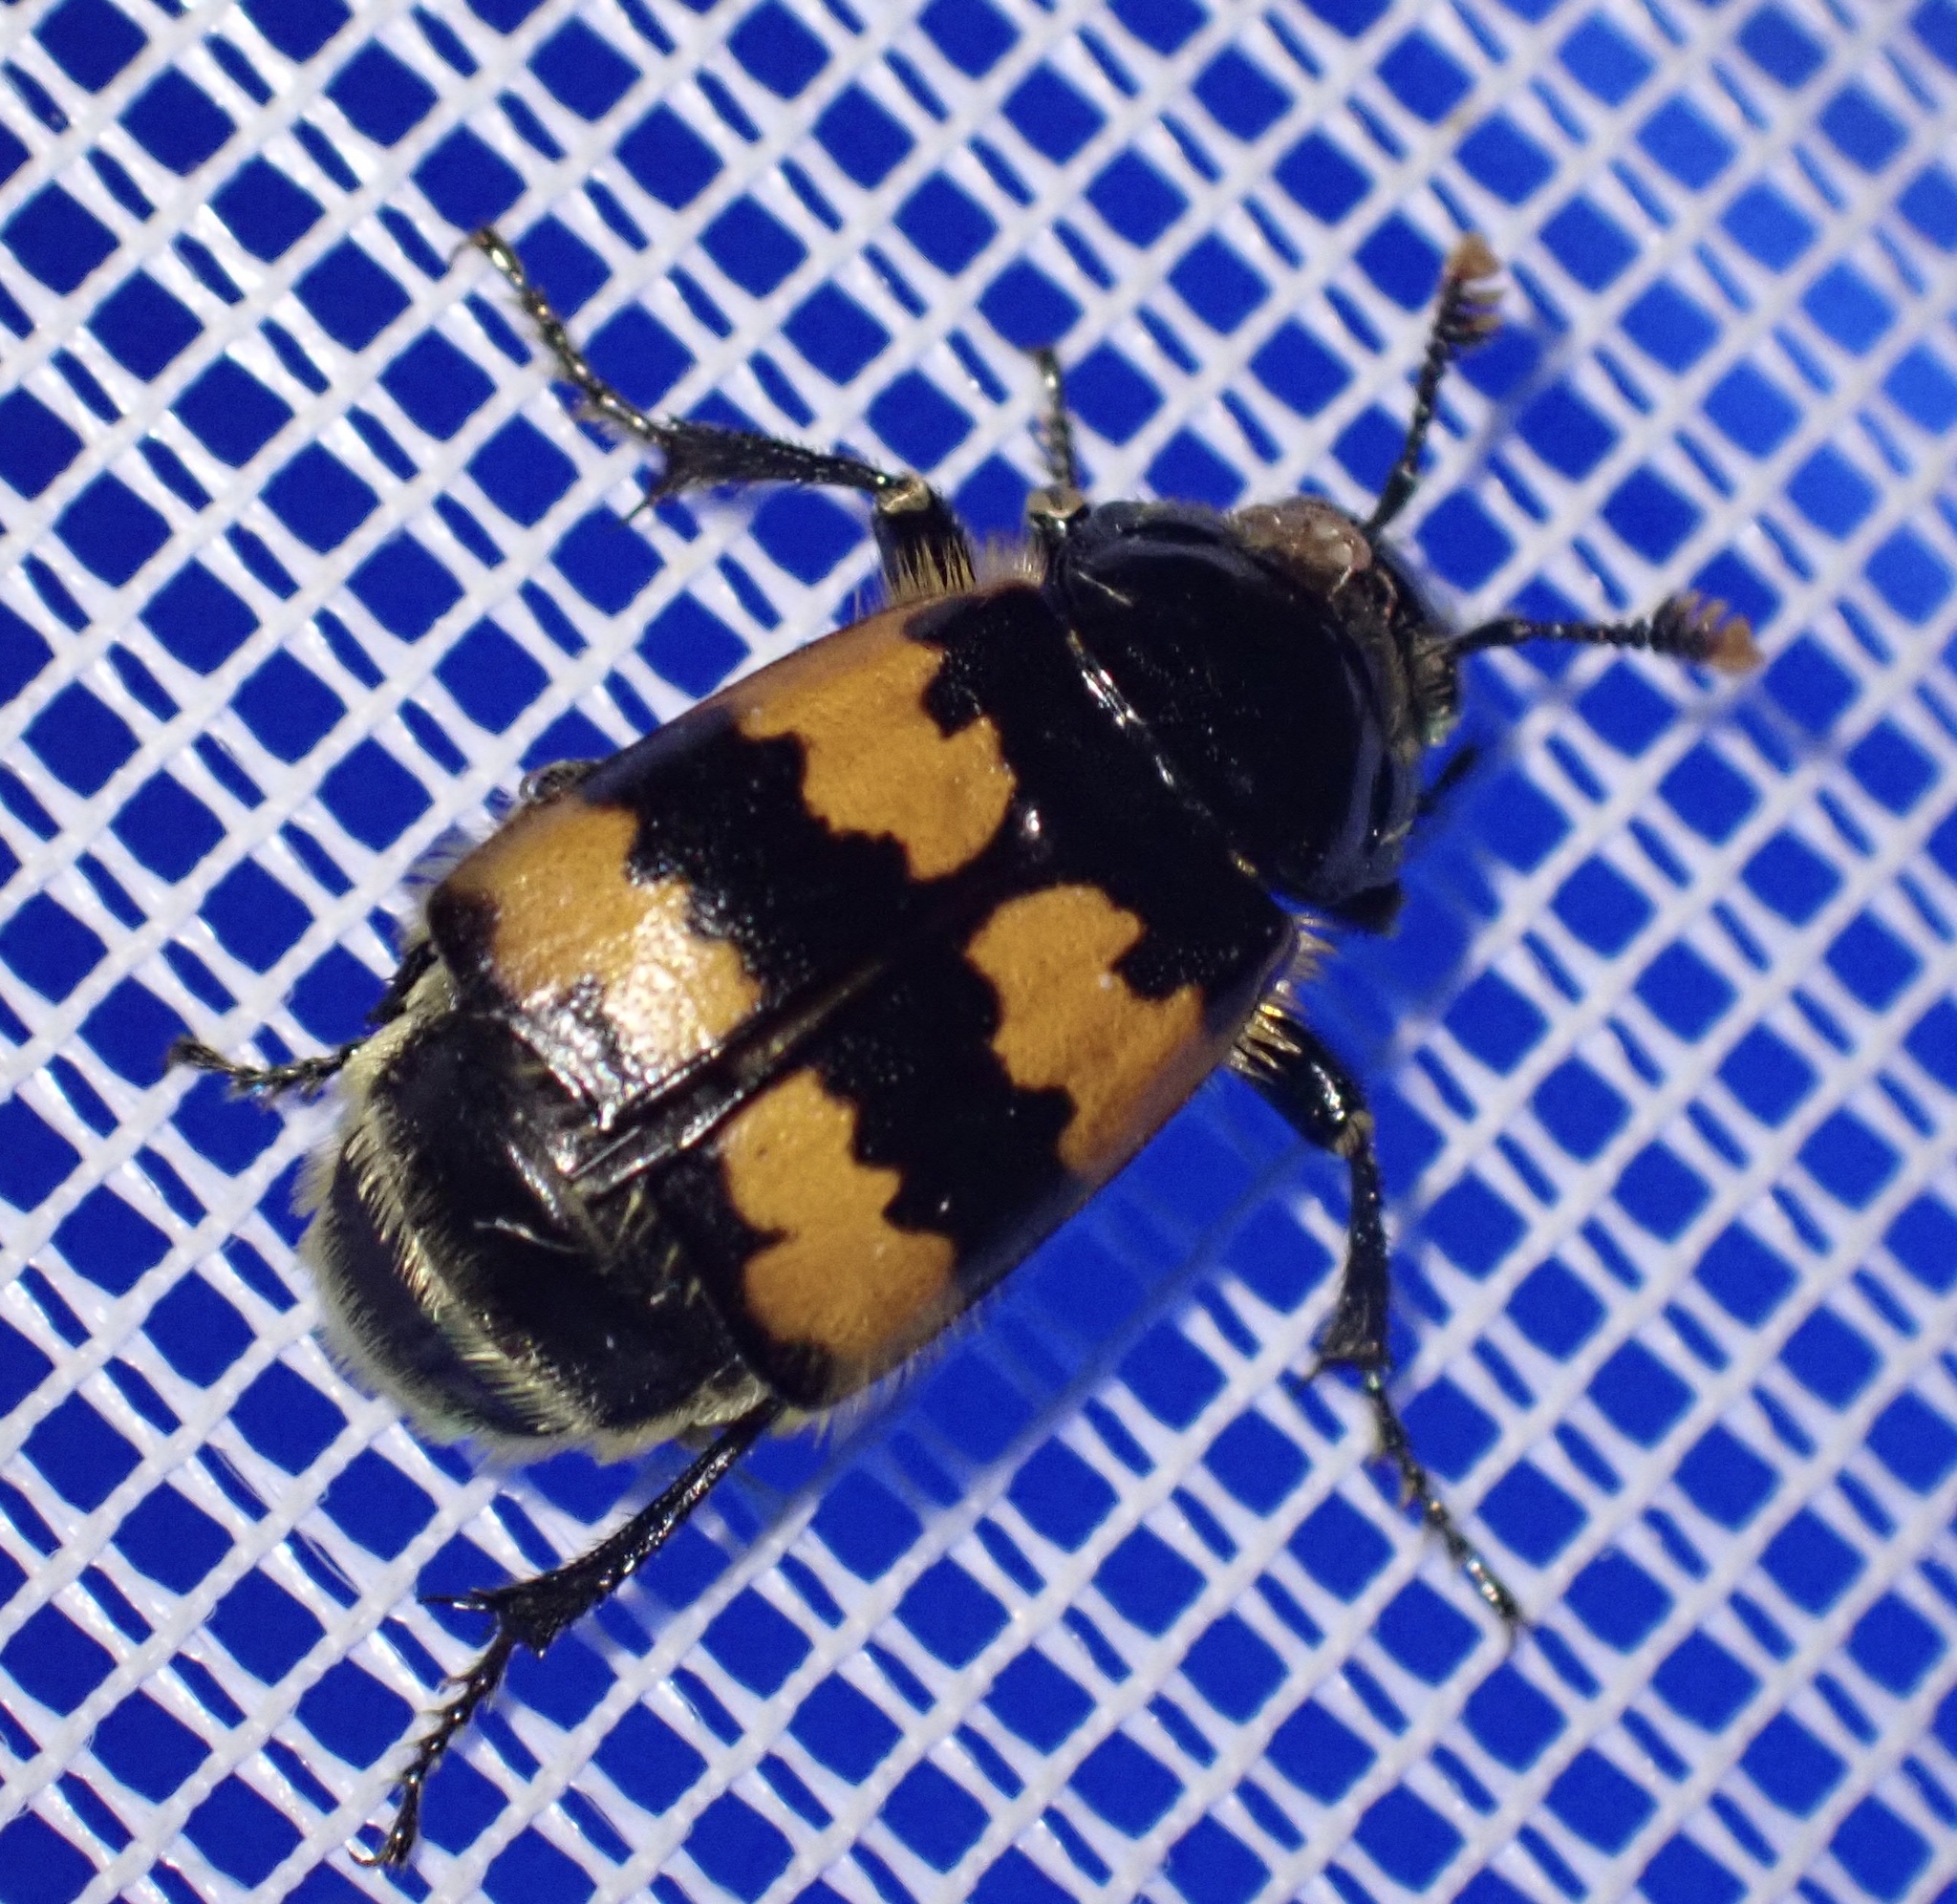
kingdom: Animalia
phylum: Arthropoda
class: Insecta
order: Coleoptera
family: Staphylinidae
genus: Nicrophorus
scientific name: Nicrophorus vespillo
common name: Common burying beetle
